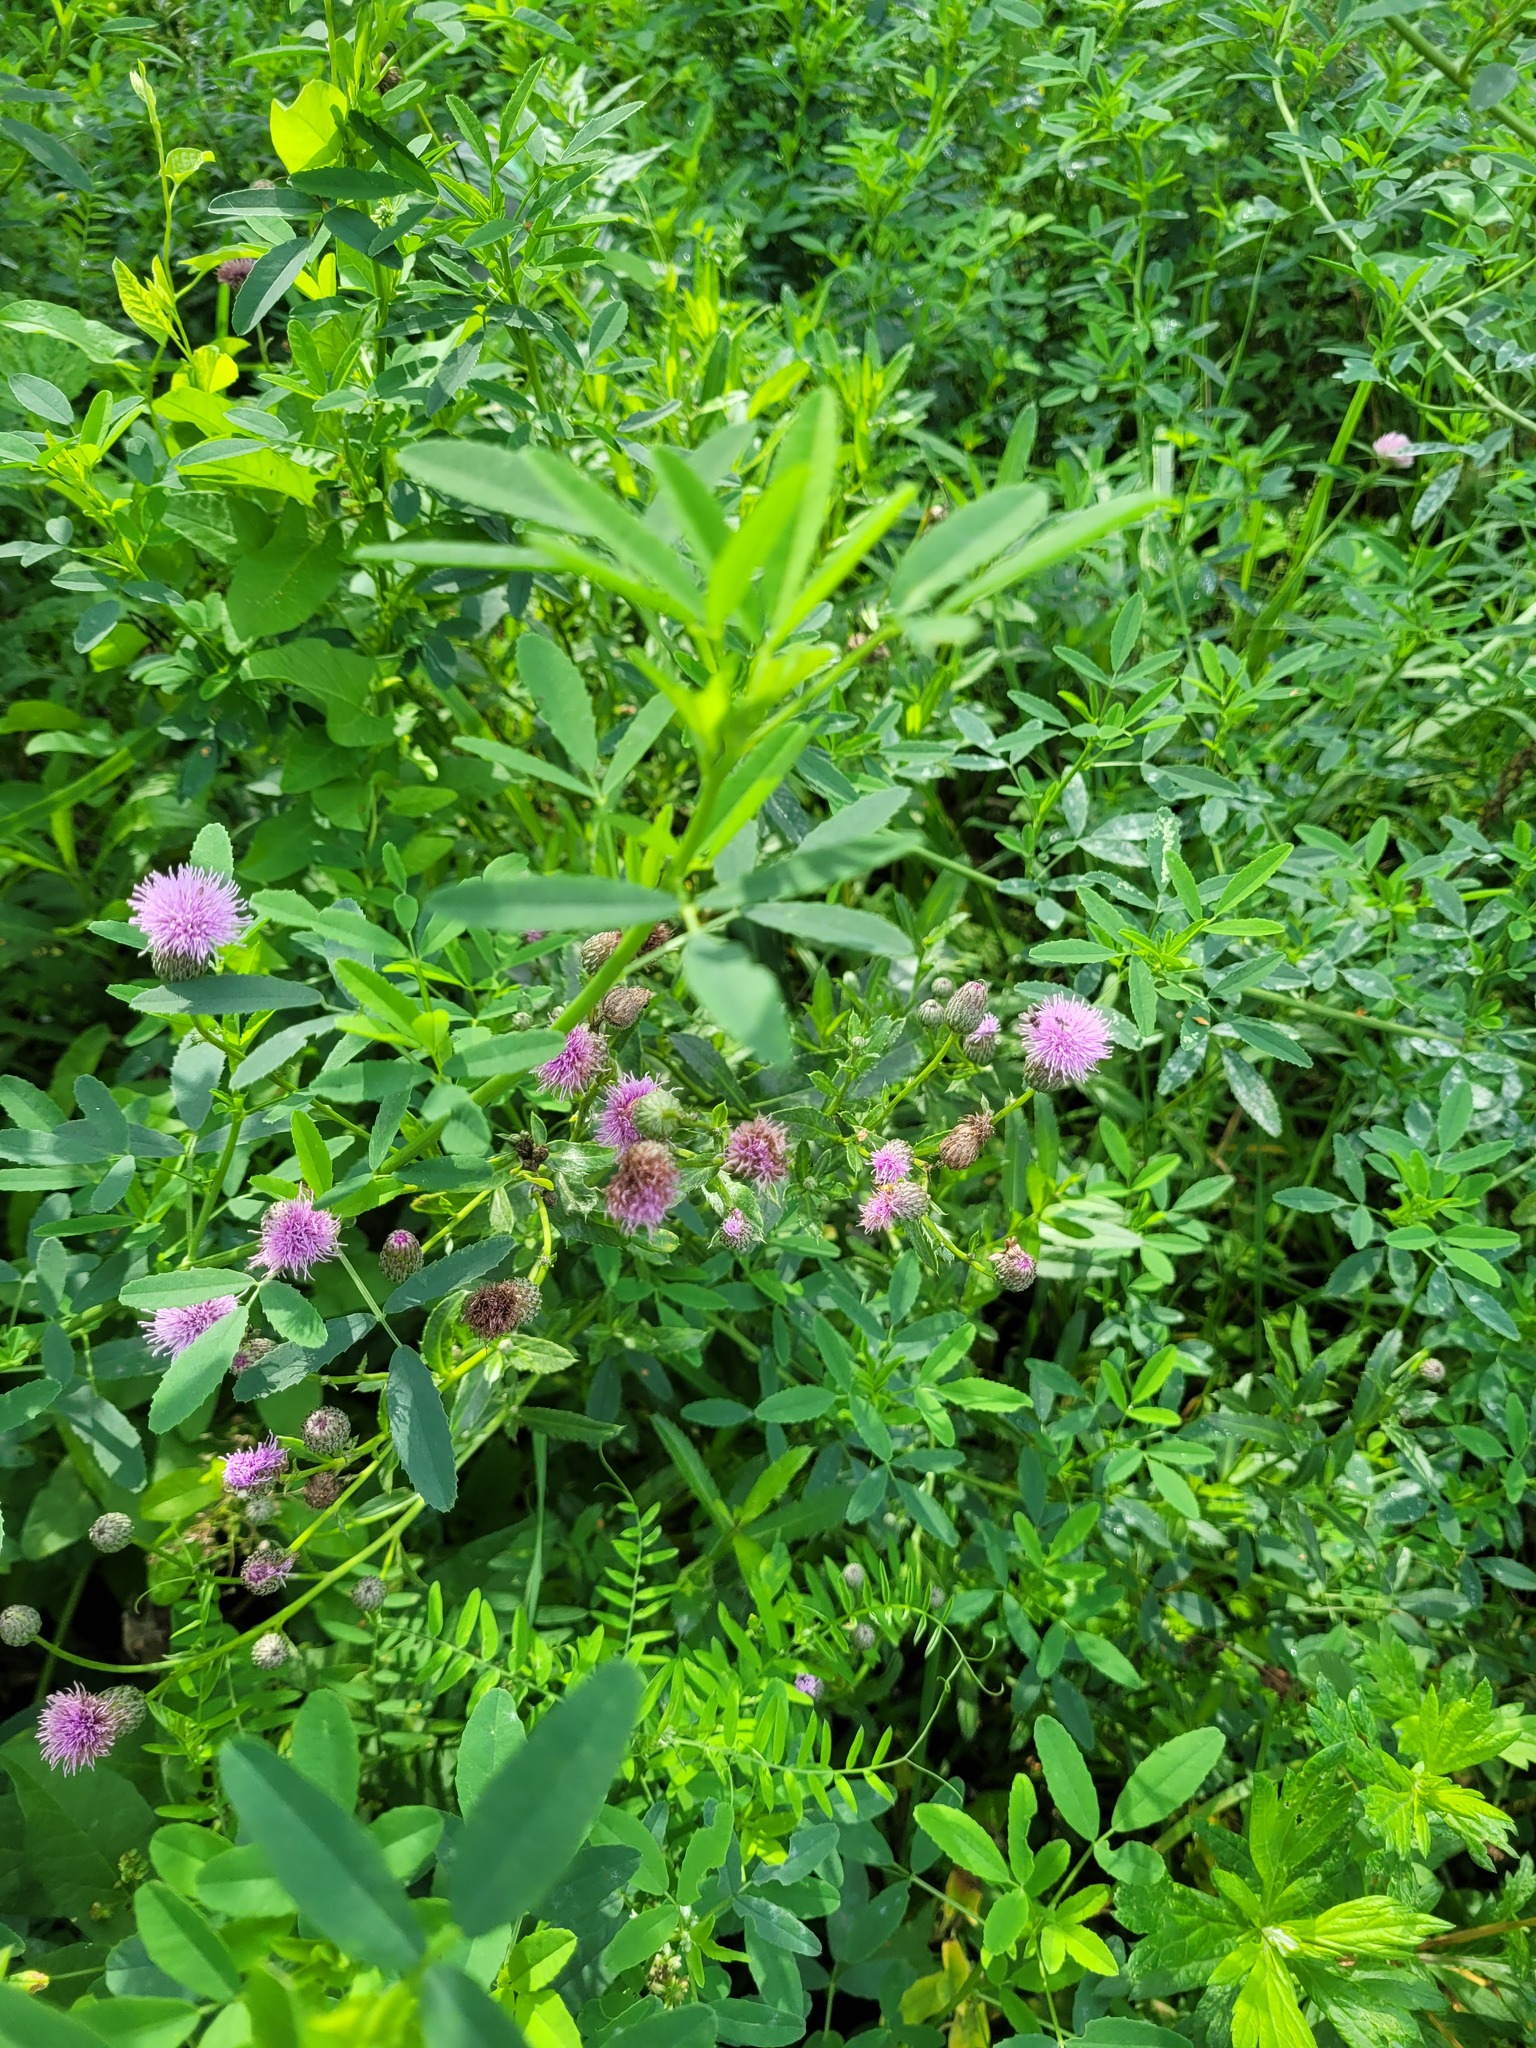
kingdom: Plantae
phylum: Tracheophyta
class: Magnoliopsida
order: Asterales
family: Asteraceae
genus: Cirsium
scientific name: Cirsium arvense
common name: Creeping thistle
